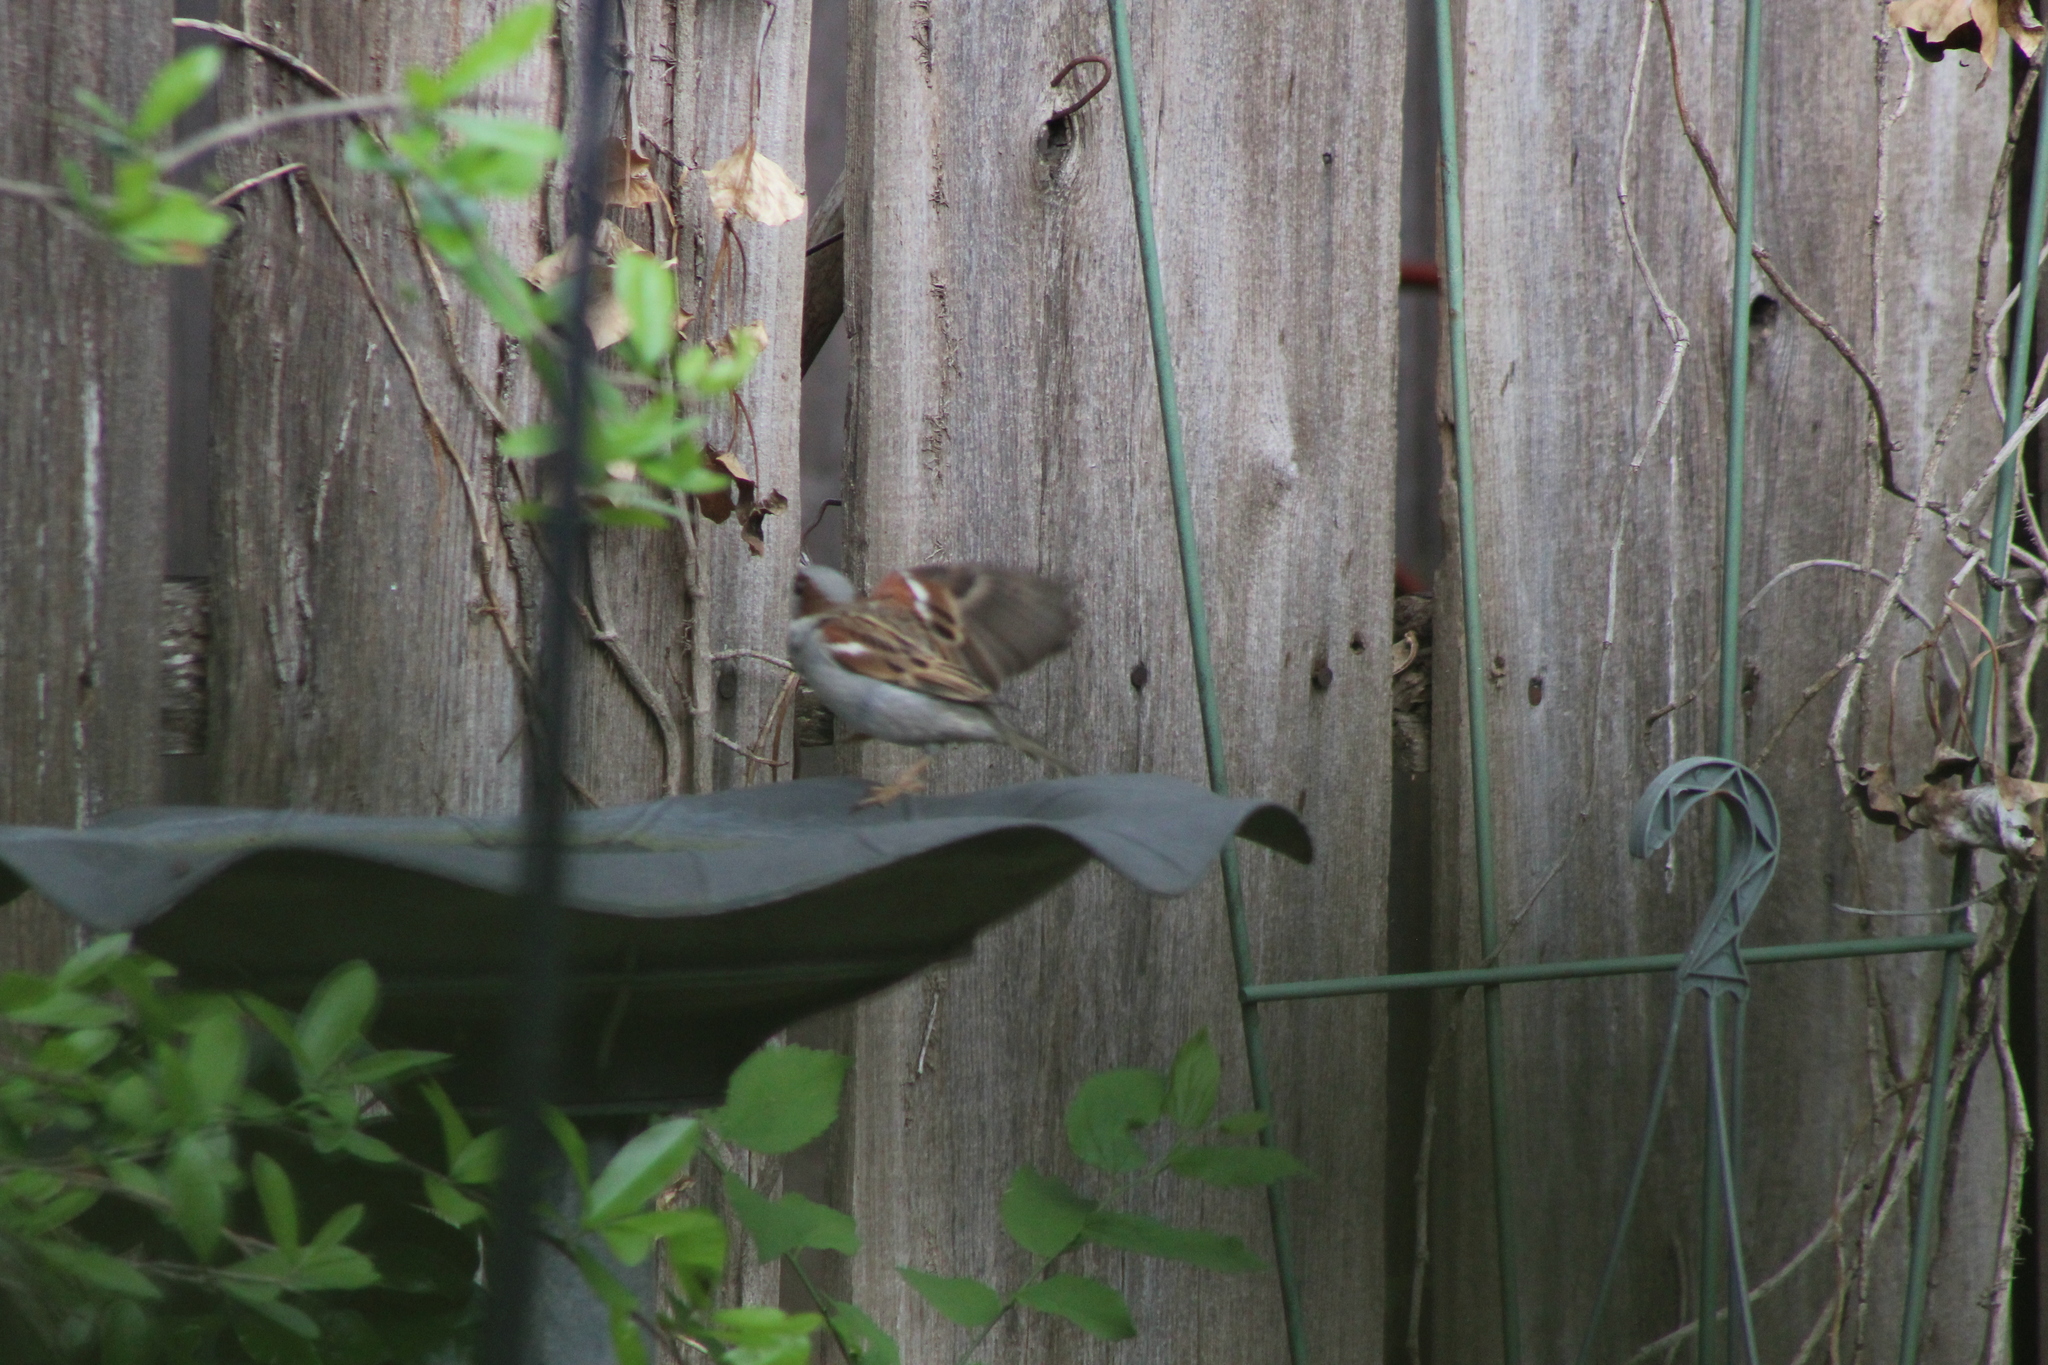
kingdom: Animalia
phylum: Chordata
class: Aves
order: Passeriformes
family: Passeridae
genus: Passer
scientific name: Passer domesticus
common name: House sparrow
